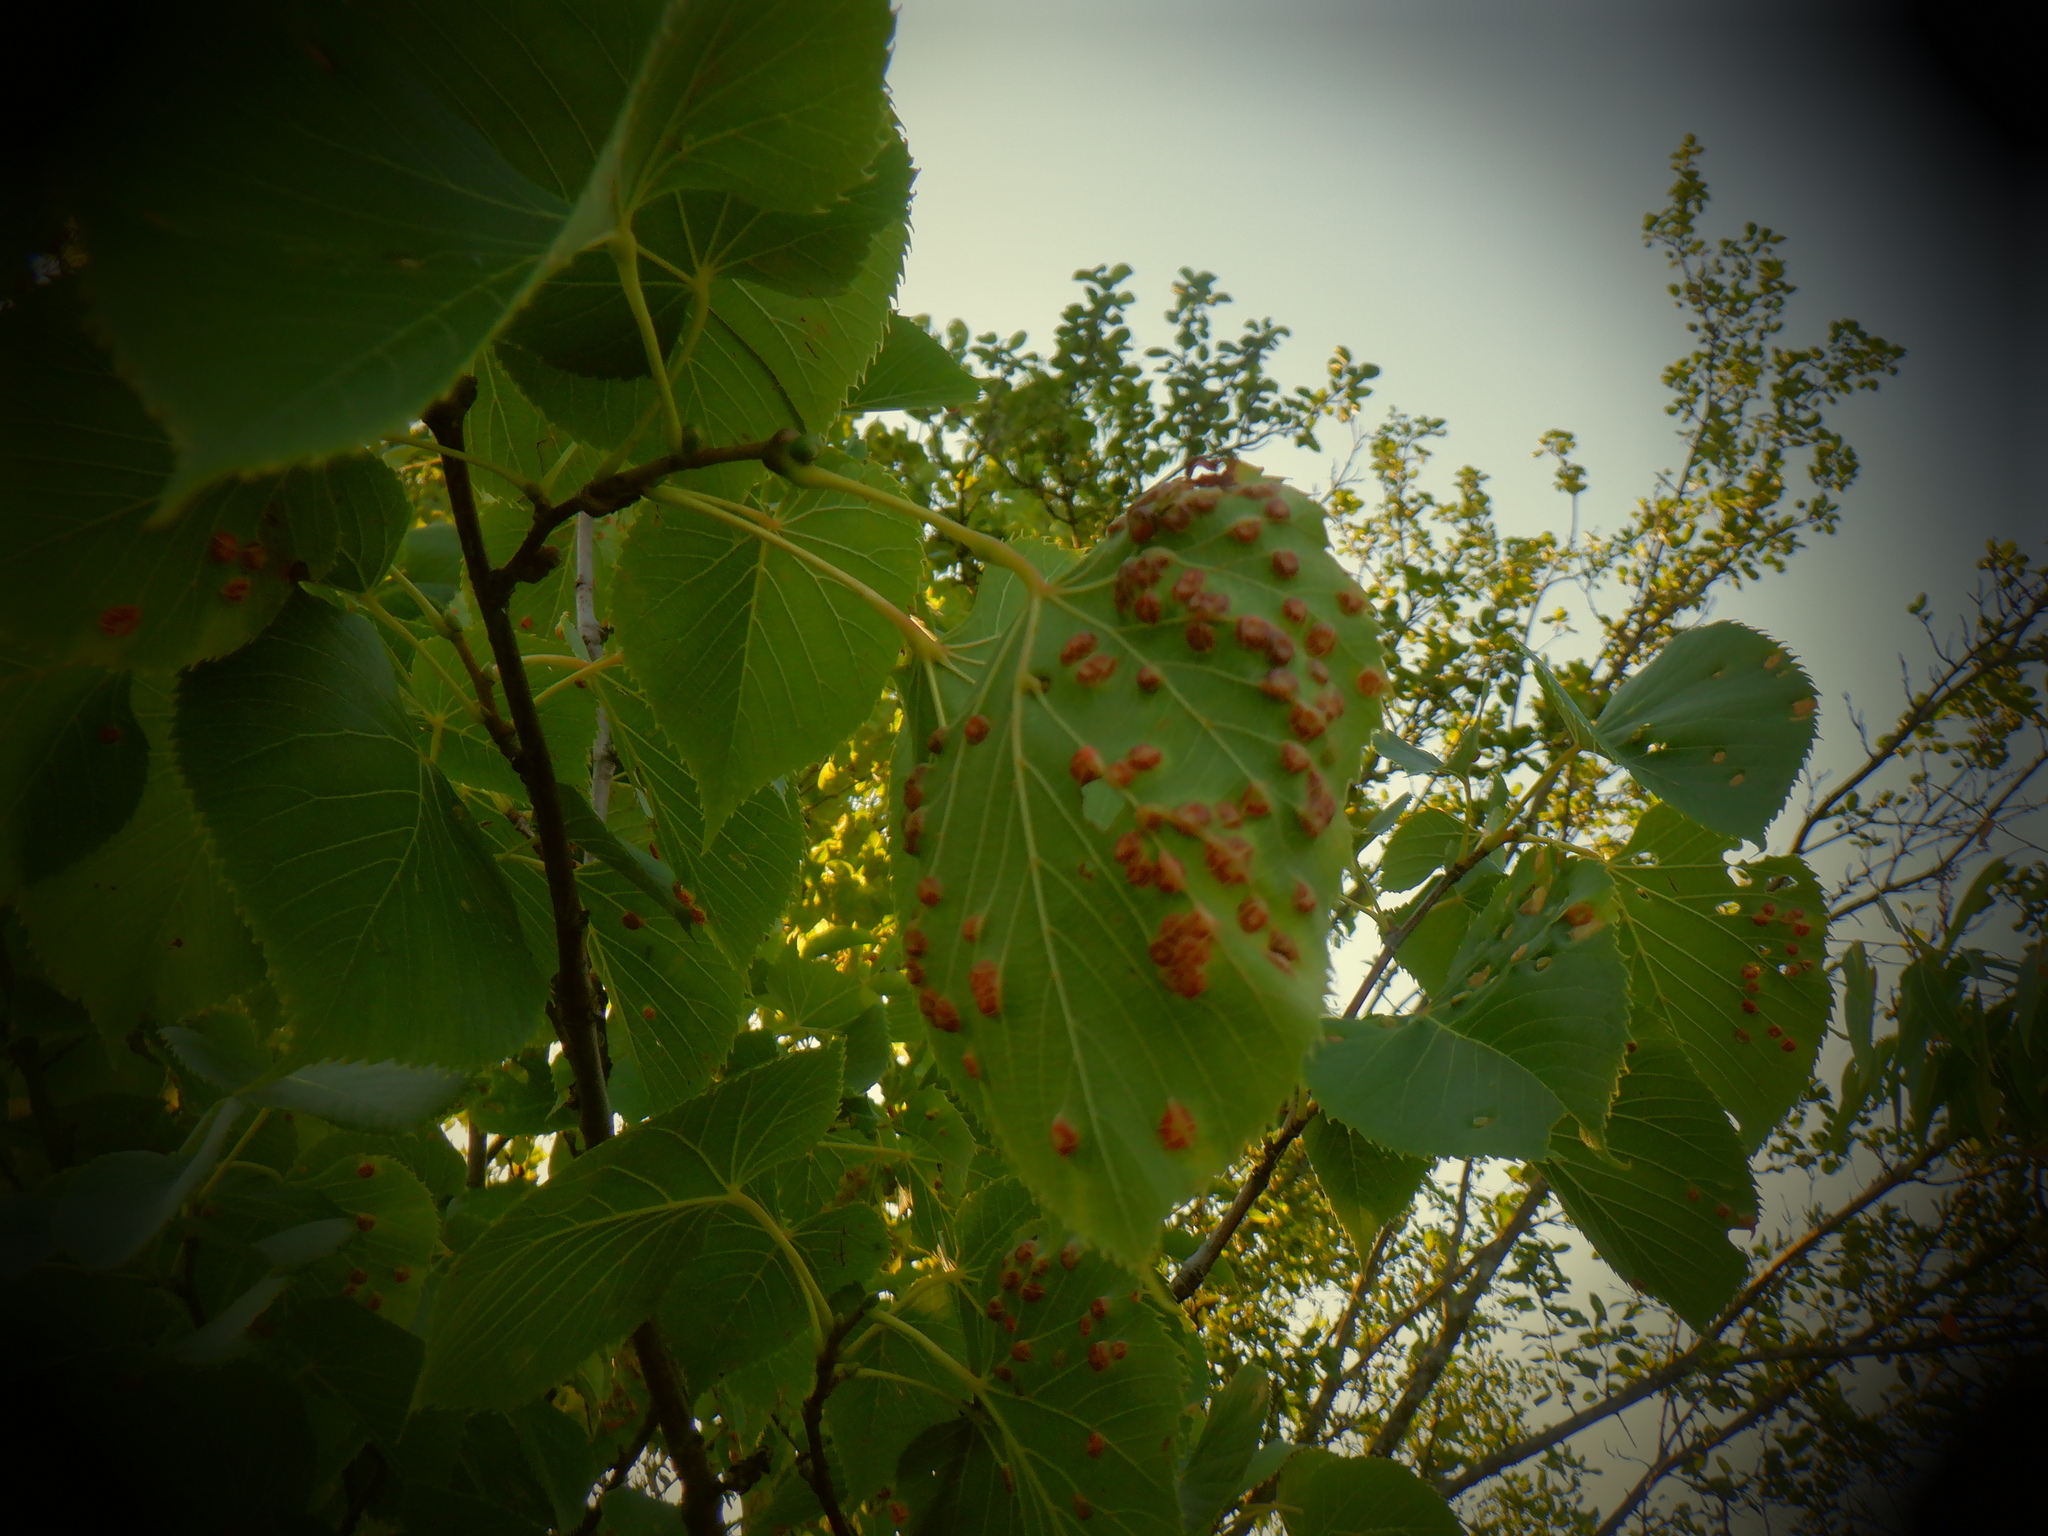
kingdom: Animalia
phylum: Arthropoda
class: Insecta
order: Diptera
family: Cecidomyiidae
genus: Contarinia
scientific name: Contarinia verrucicola
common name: Linden wart gall midge
